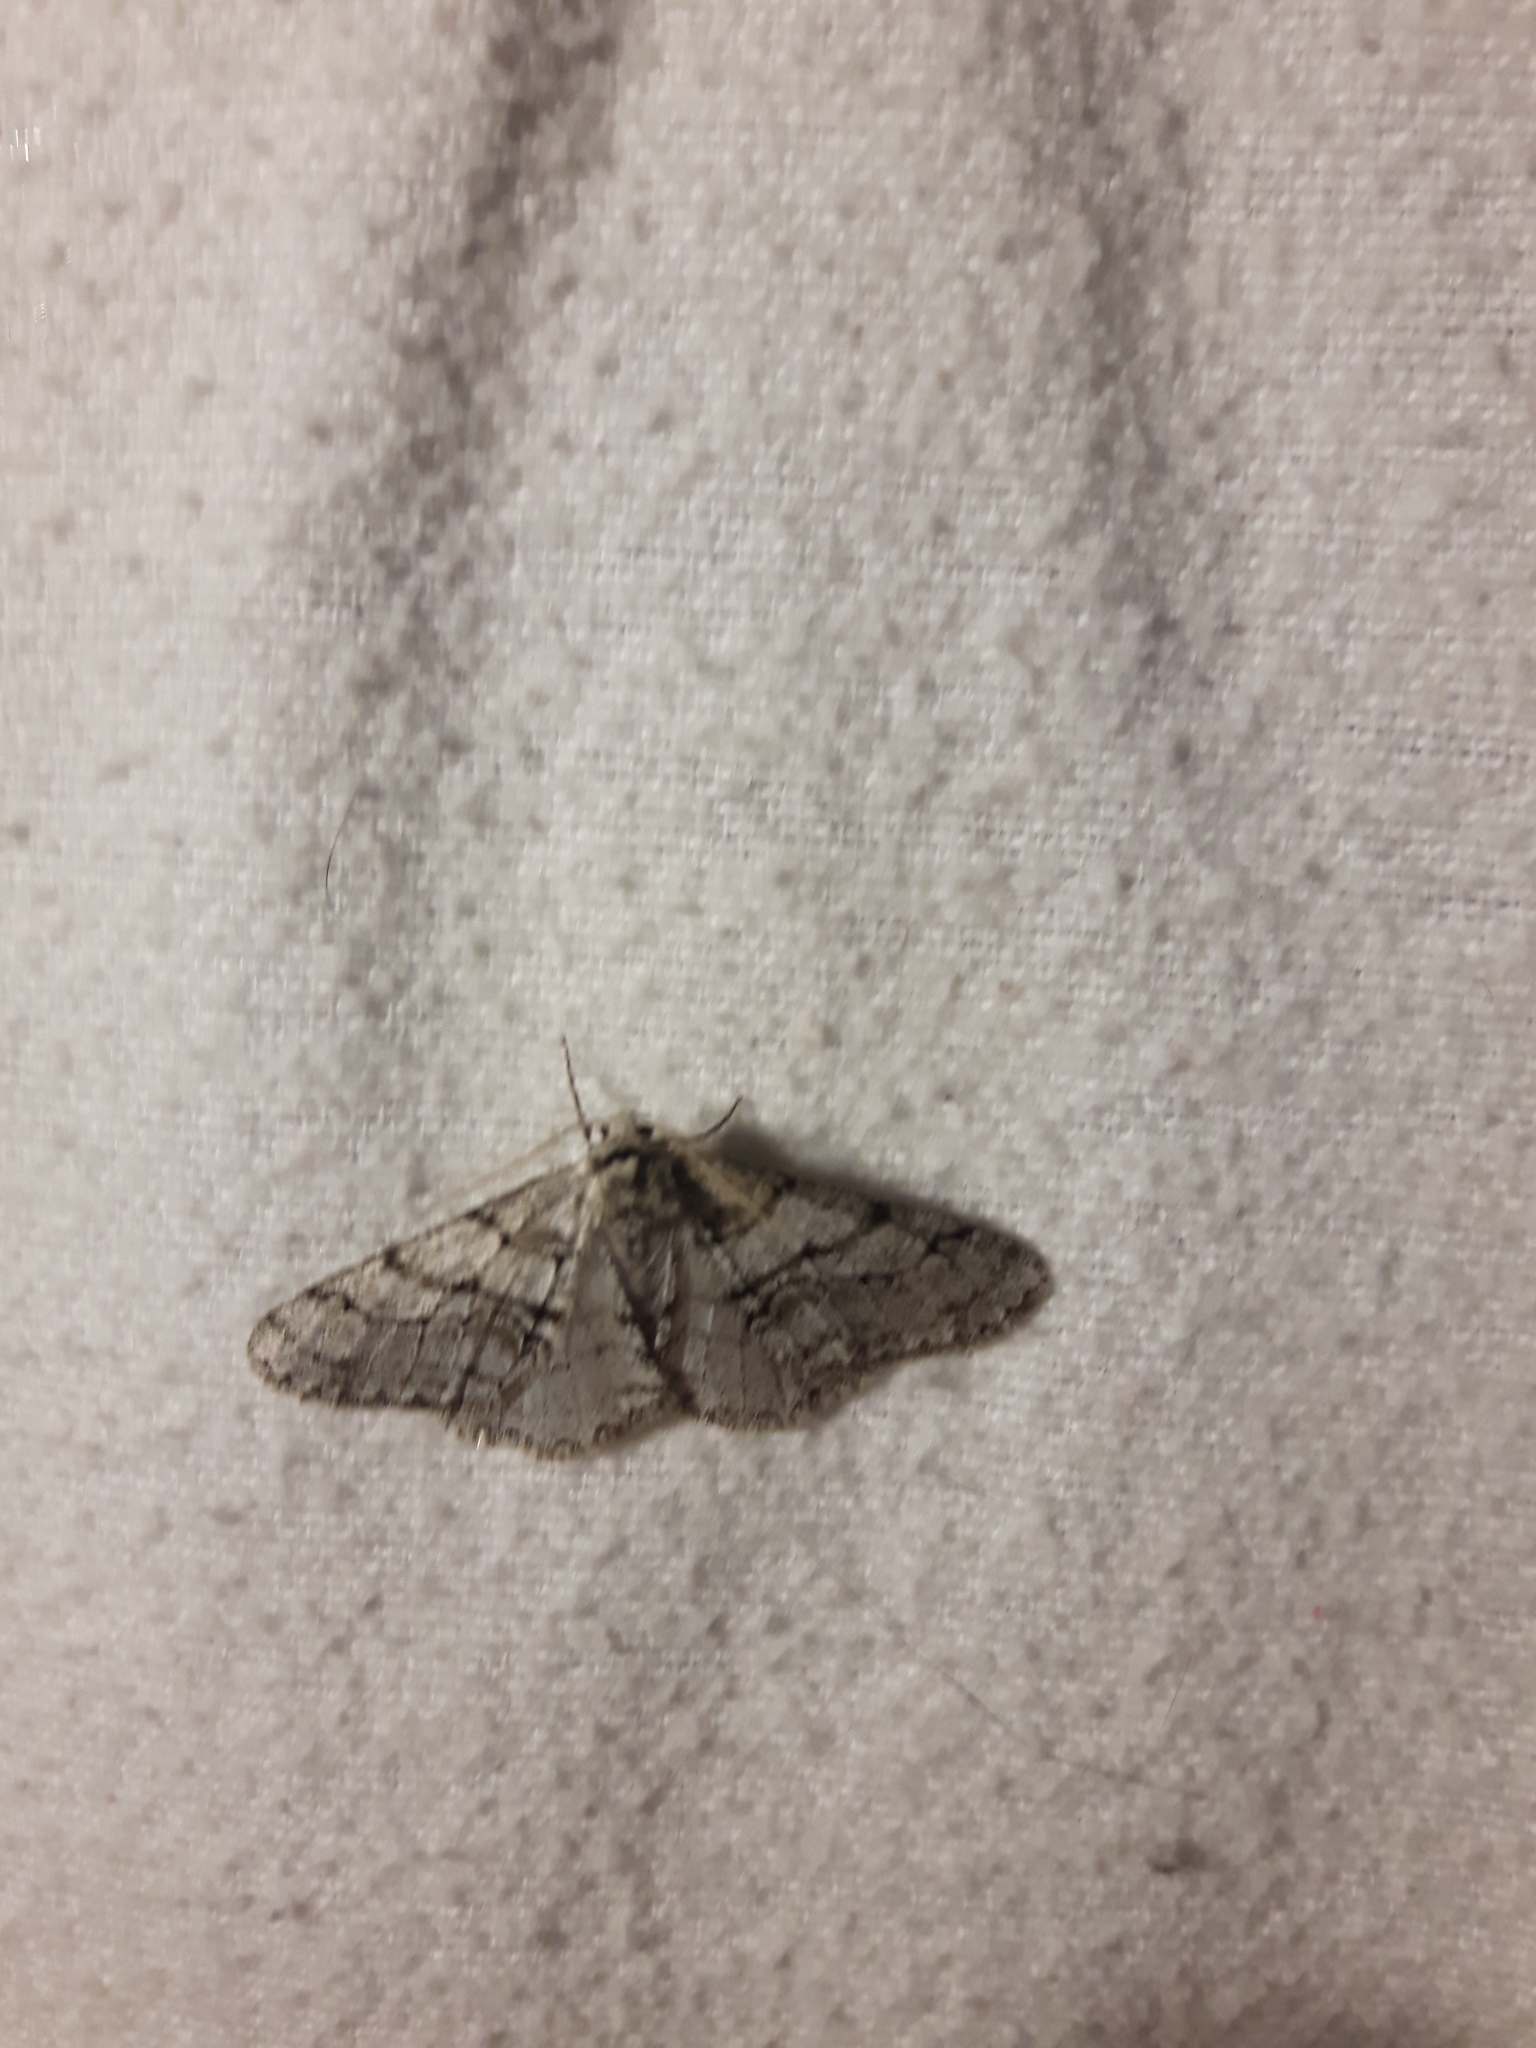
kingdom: Animalia
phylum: Arthropoda
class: Insecta
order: Lepidoptera
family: Geometridae
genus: Phigalia
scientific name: Phigalia titea
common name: Spiny looper
